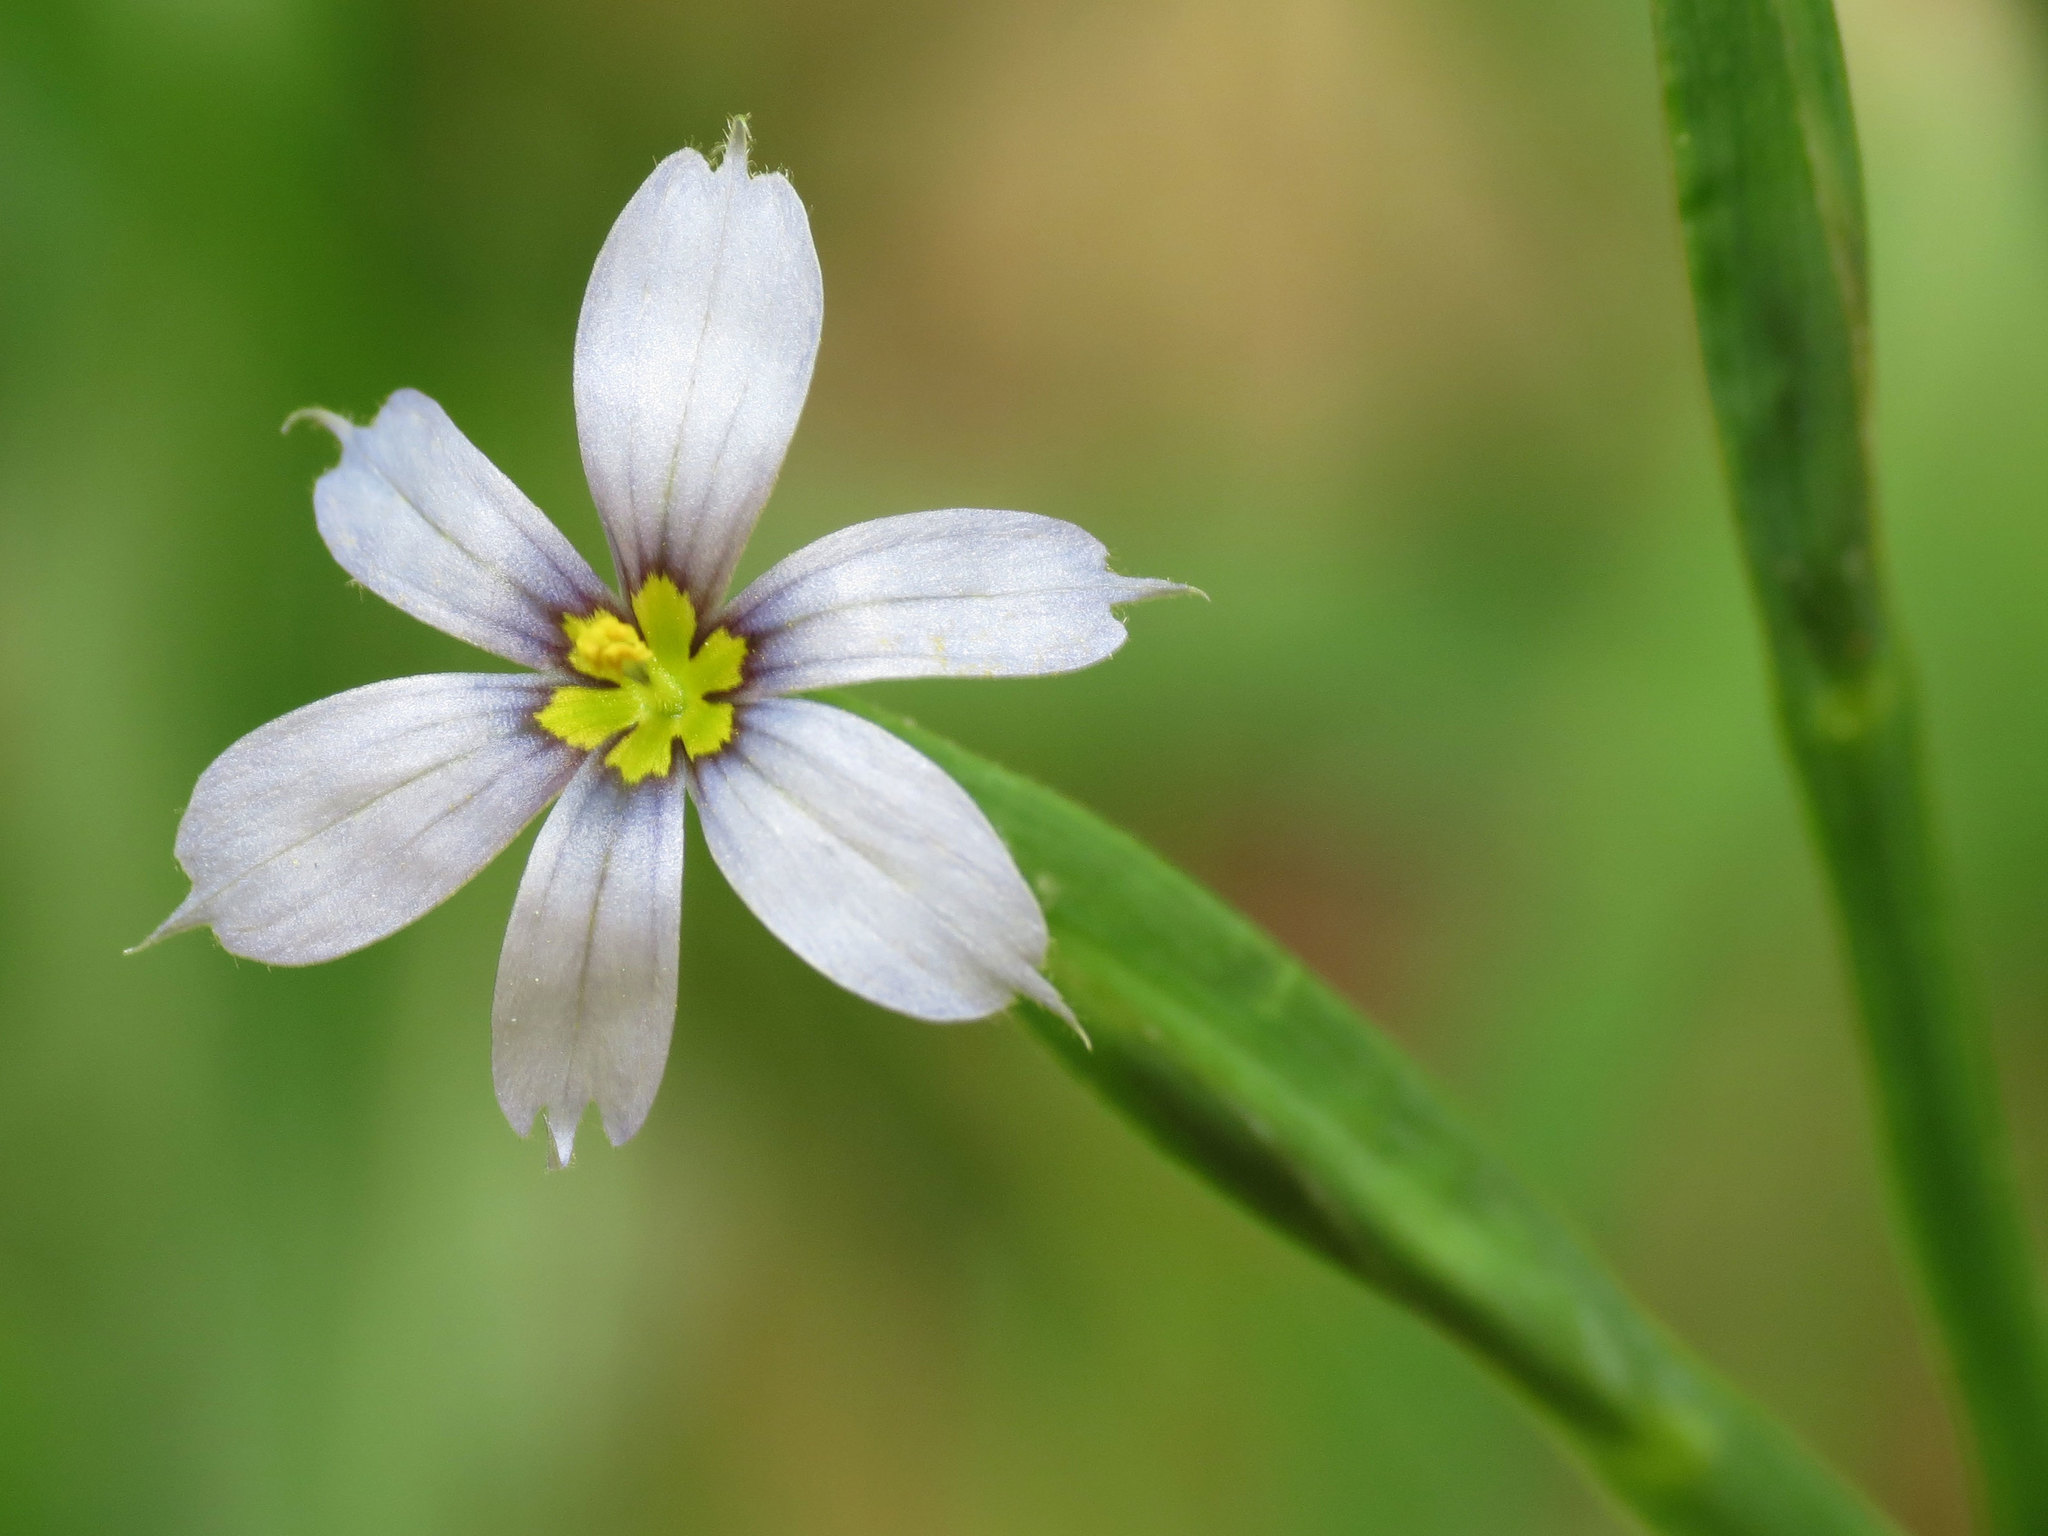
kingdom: Plantae
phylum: Tracheophyta
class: Liliopsida
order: Asparagales
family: Iridaceae
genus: Sisyrinchium
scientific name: Sisyrinchium angustifolium
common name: Narrow-leaf blue-eyed-grass
